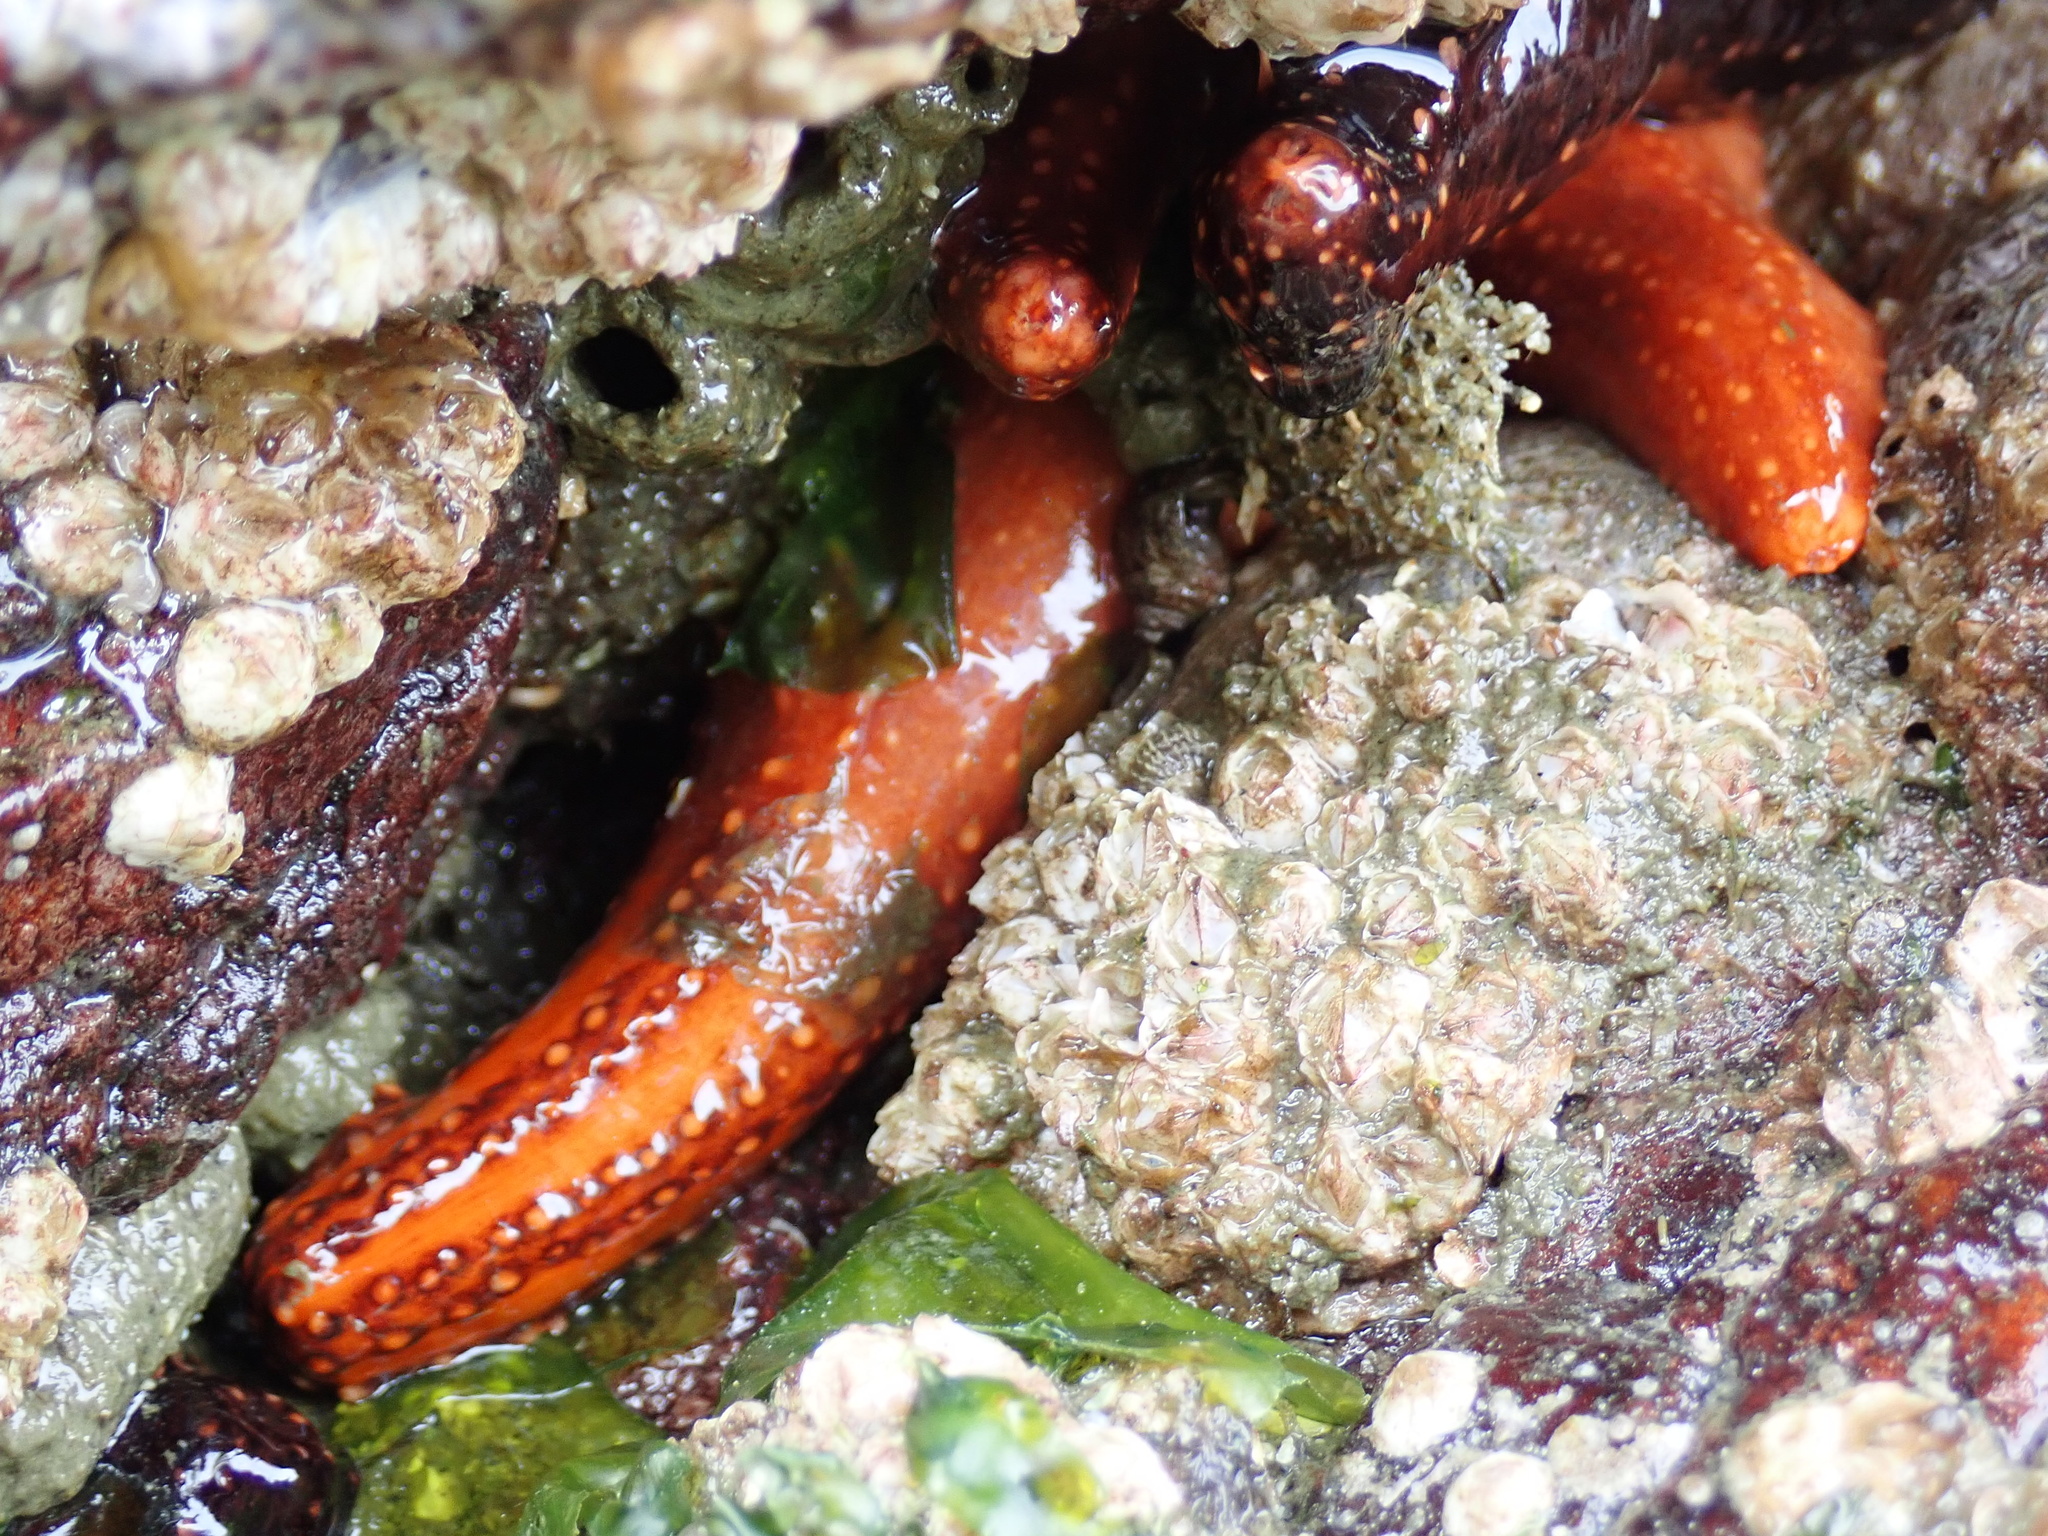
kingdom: Animalia
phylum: Echinodermata
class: Holothuroidea
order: Dendrochirotida
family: Cucumariidae
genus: Cucumaria
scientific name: Cucumaria miniata
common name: Orange sea cucumber
